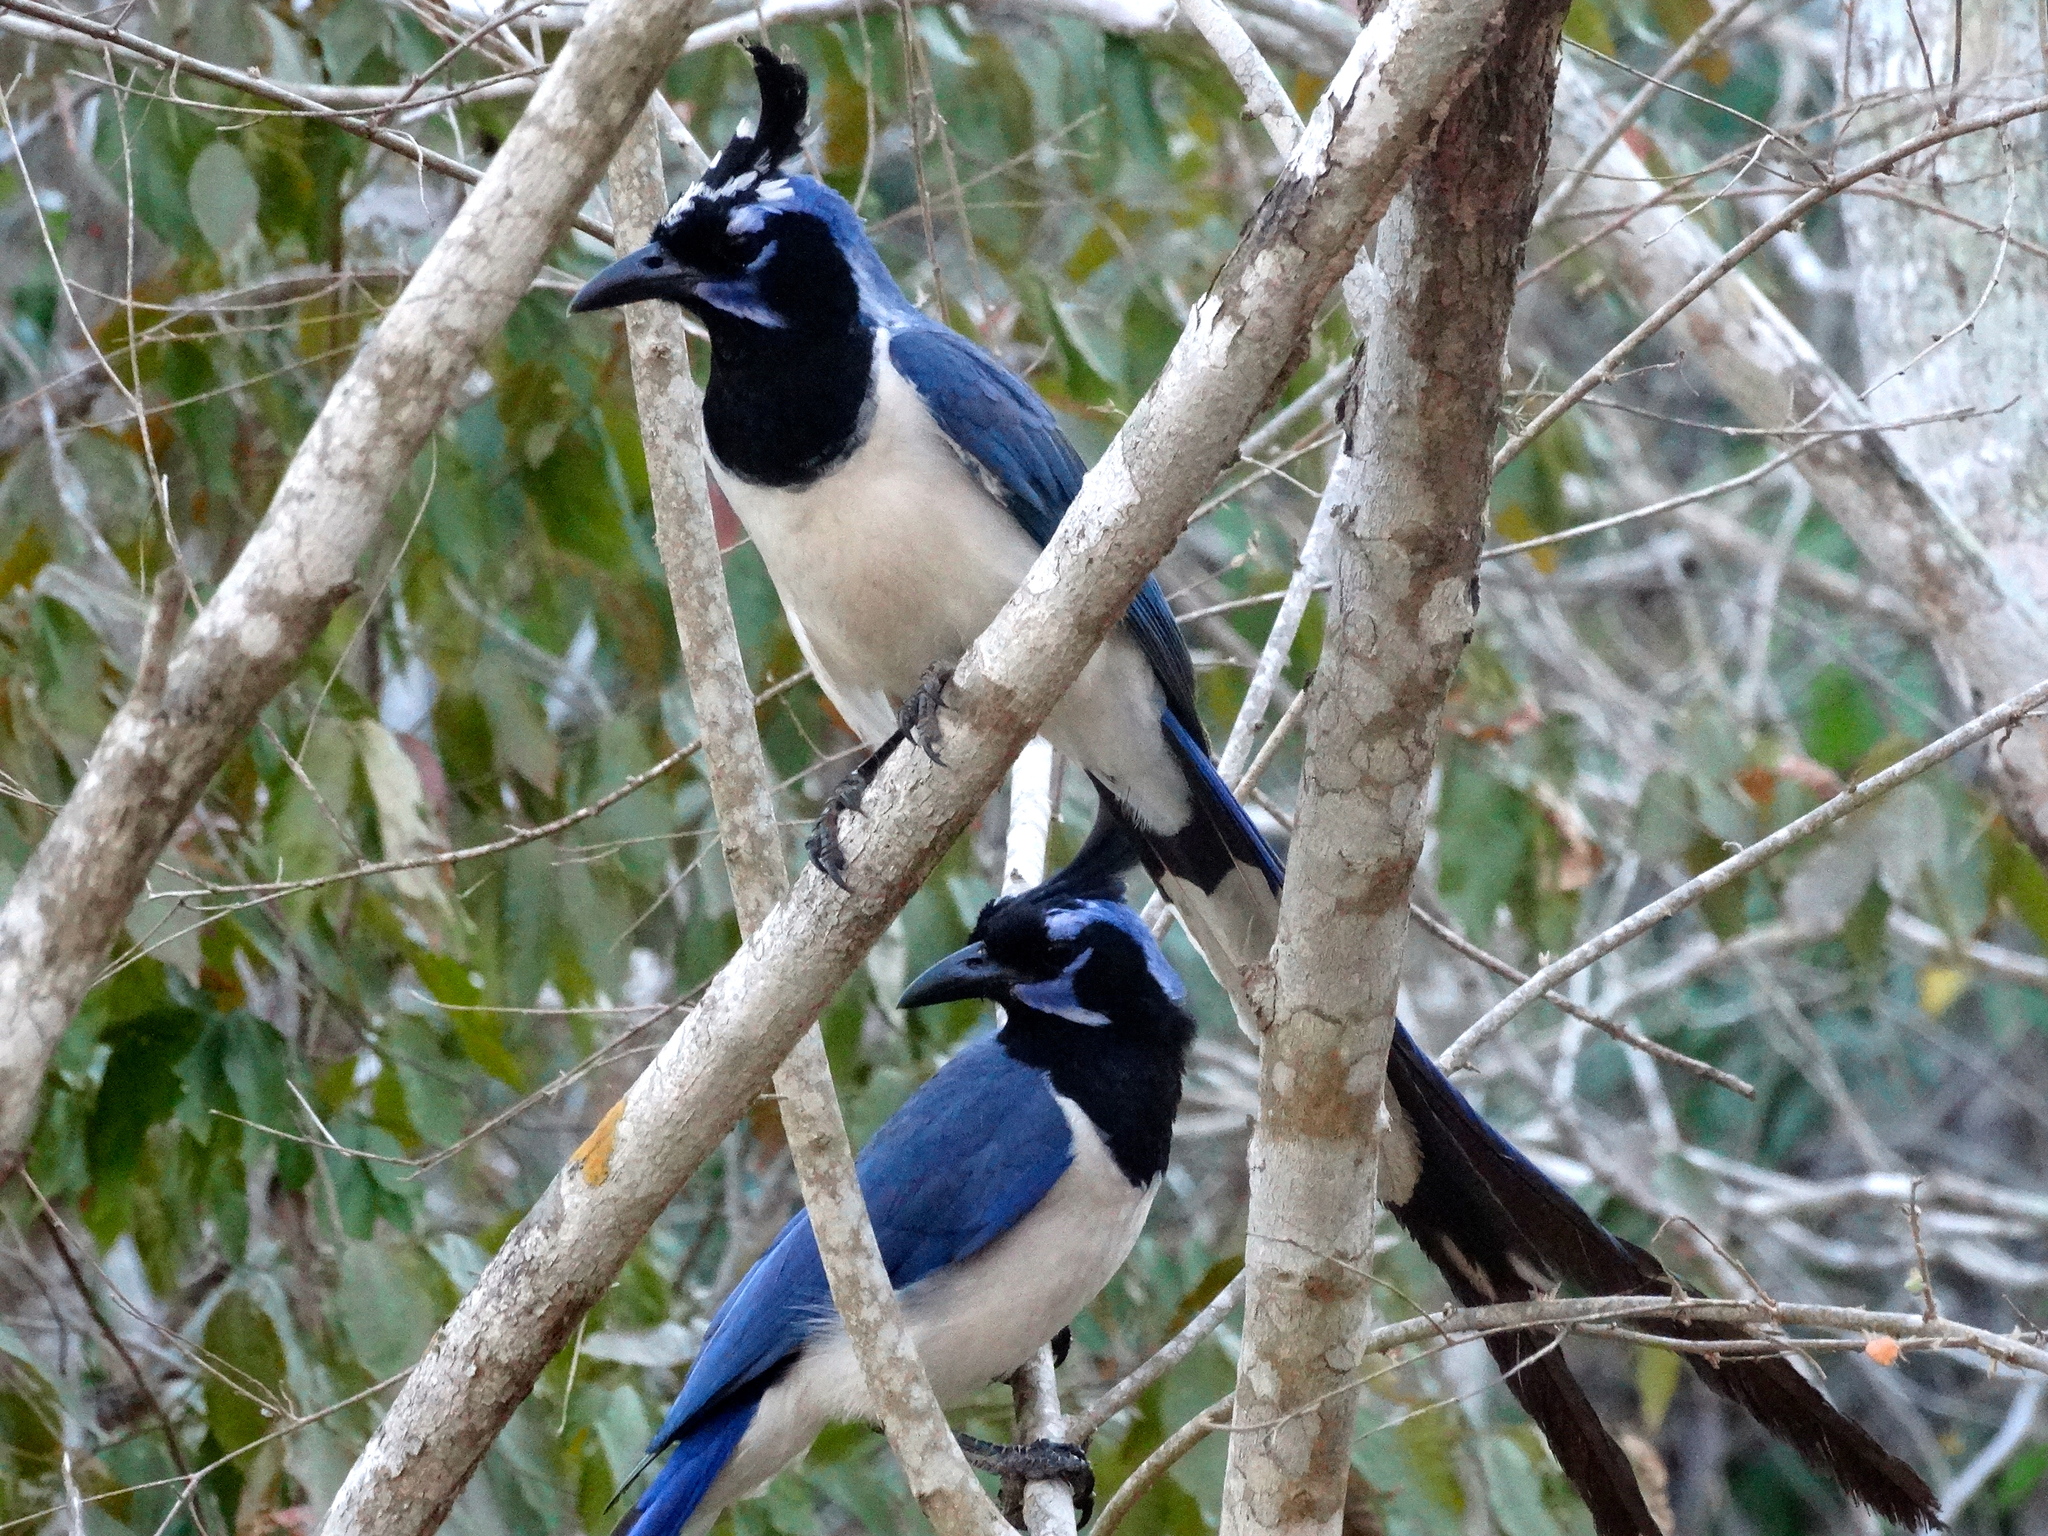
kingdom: Animalia
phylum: Chordata
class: Aves
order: Passeriformes
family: Corvidae
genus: Calocitta
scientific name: Calocitta colliei
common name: Black-throated magpie-jay
